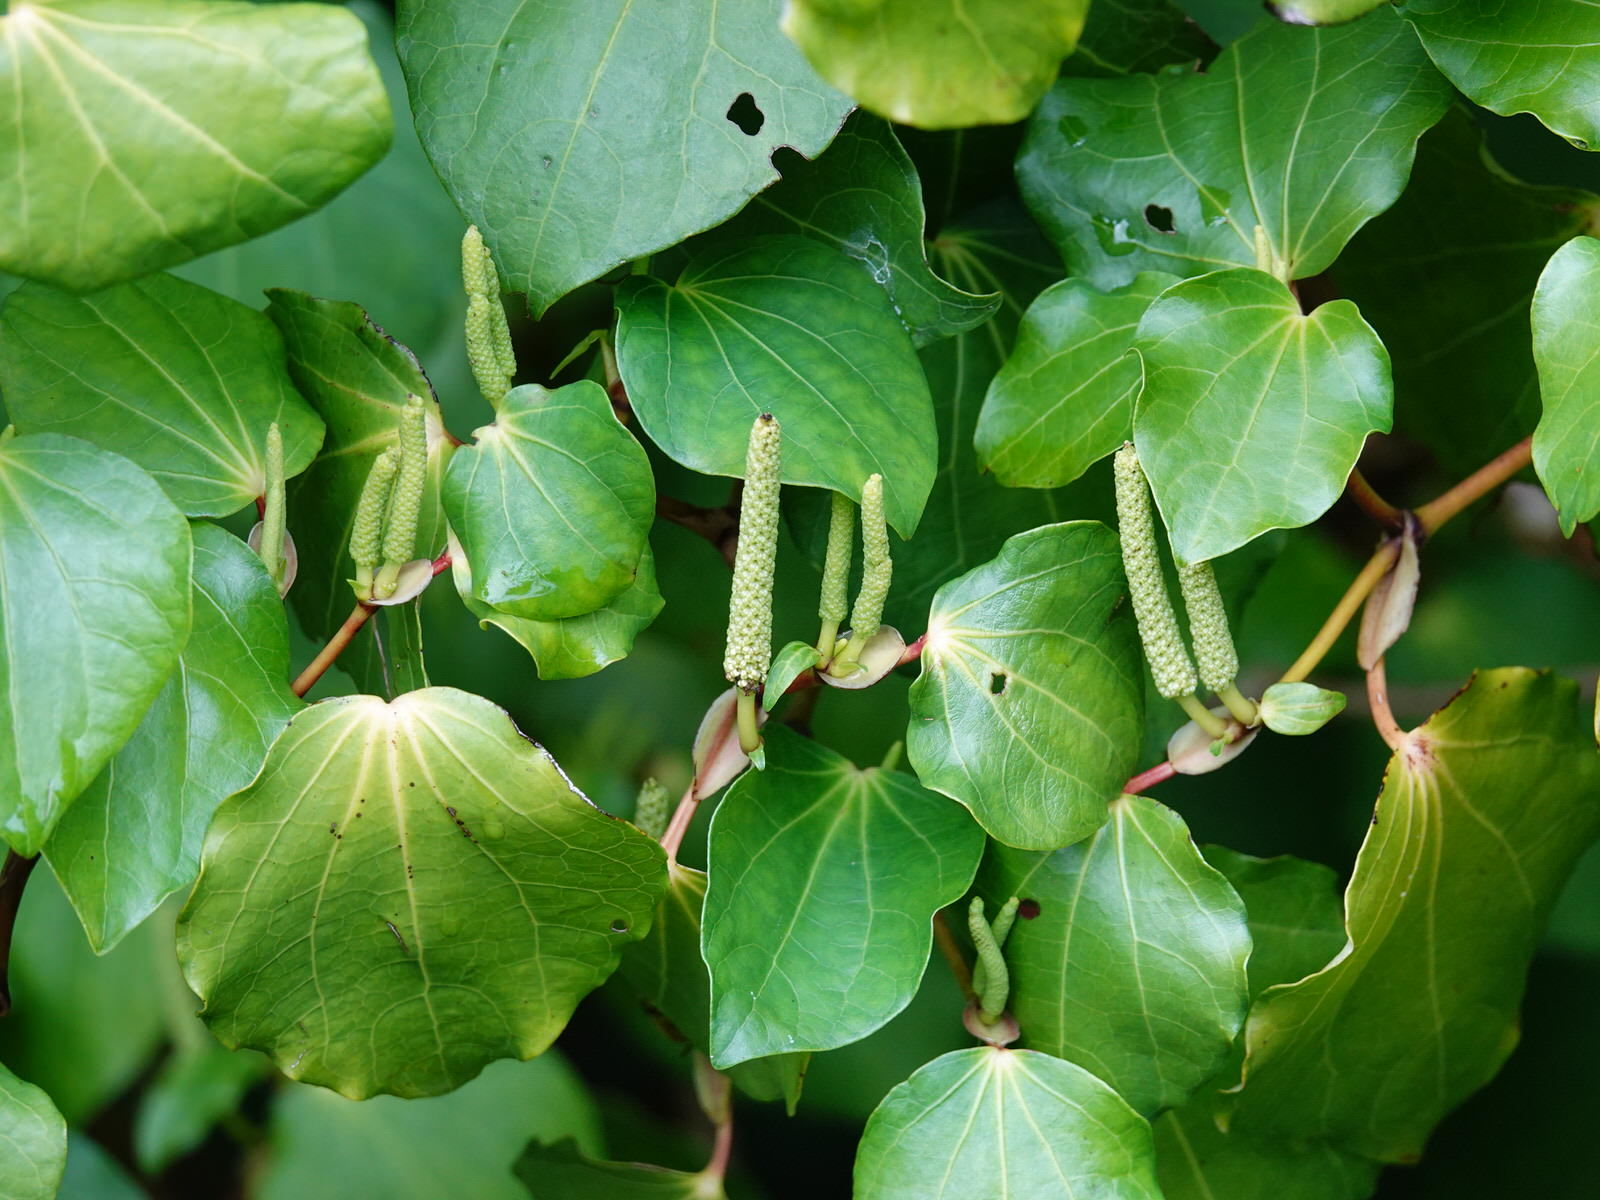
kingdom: Plantae
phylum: Tracheophyta
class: Magnoliopsida
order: Piperales
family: Piperaceae
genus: Macropiper
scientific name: Macropiper excelsum
